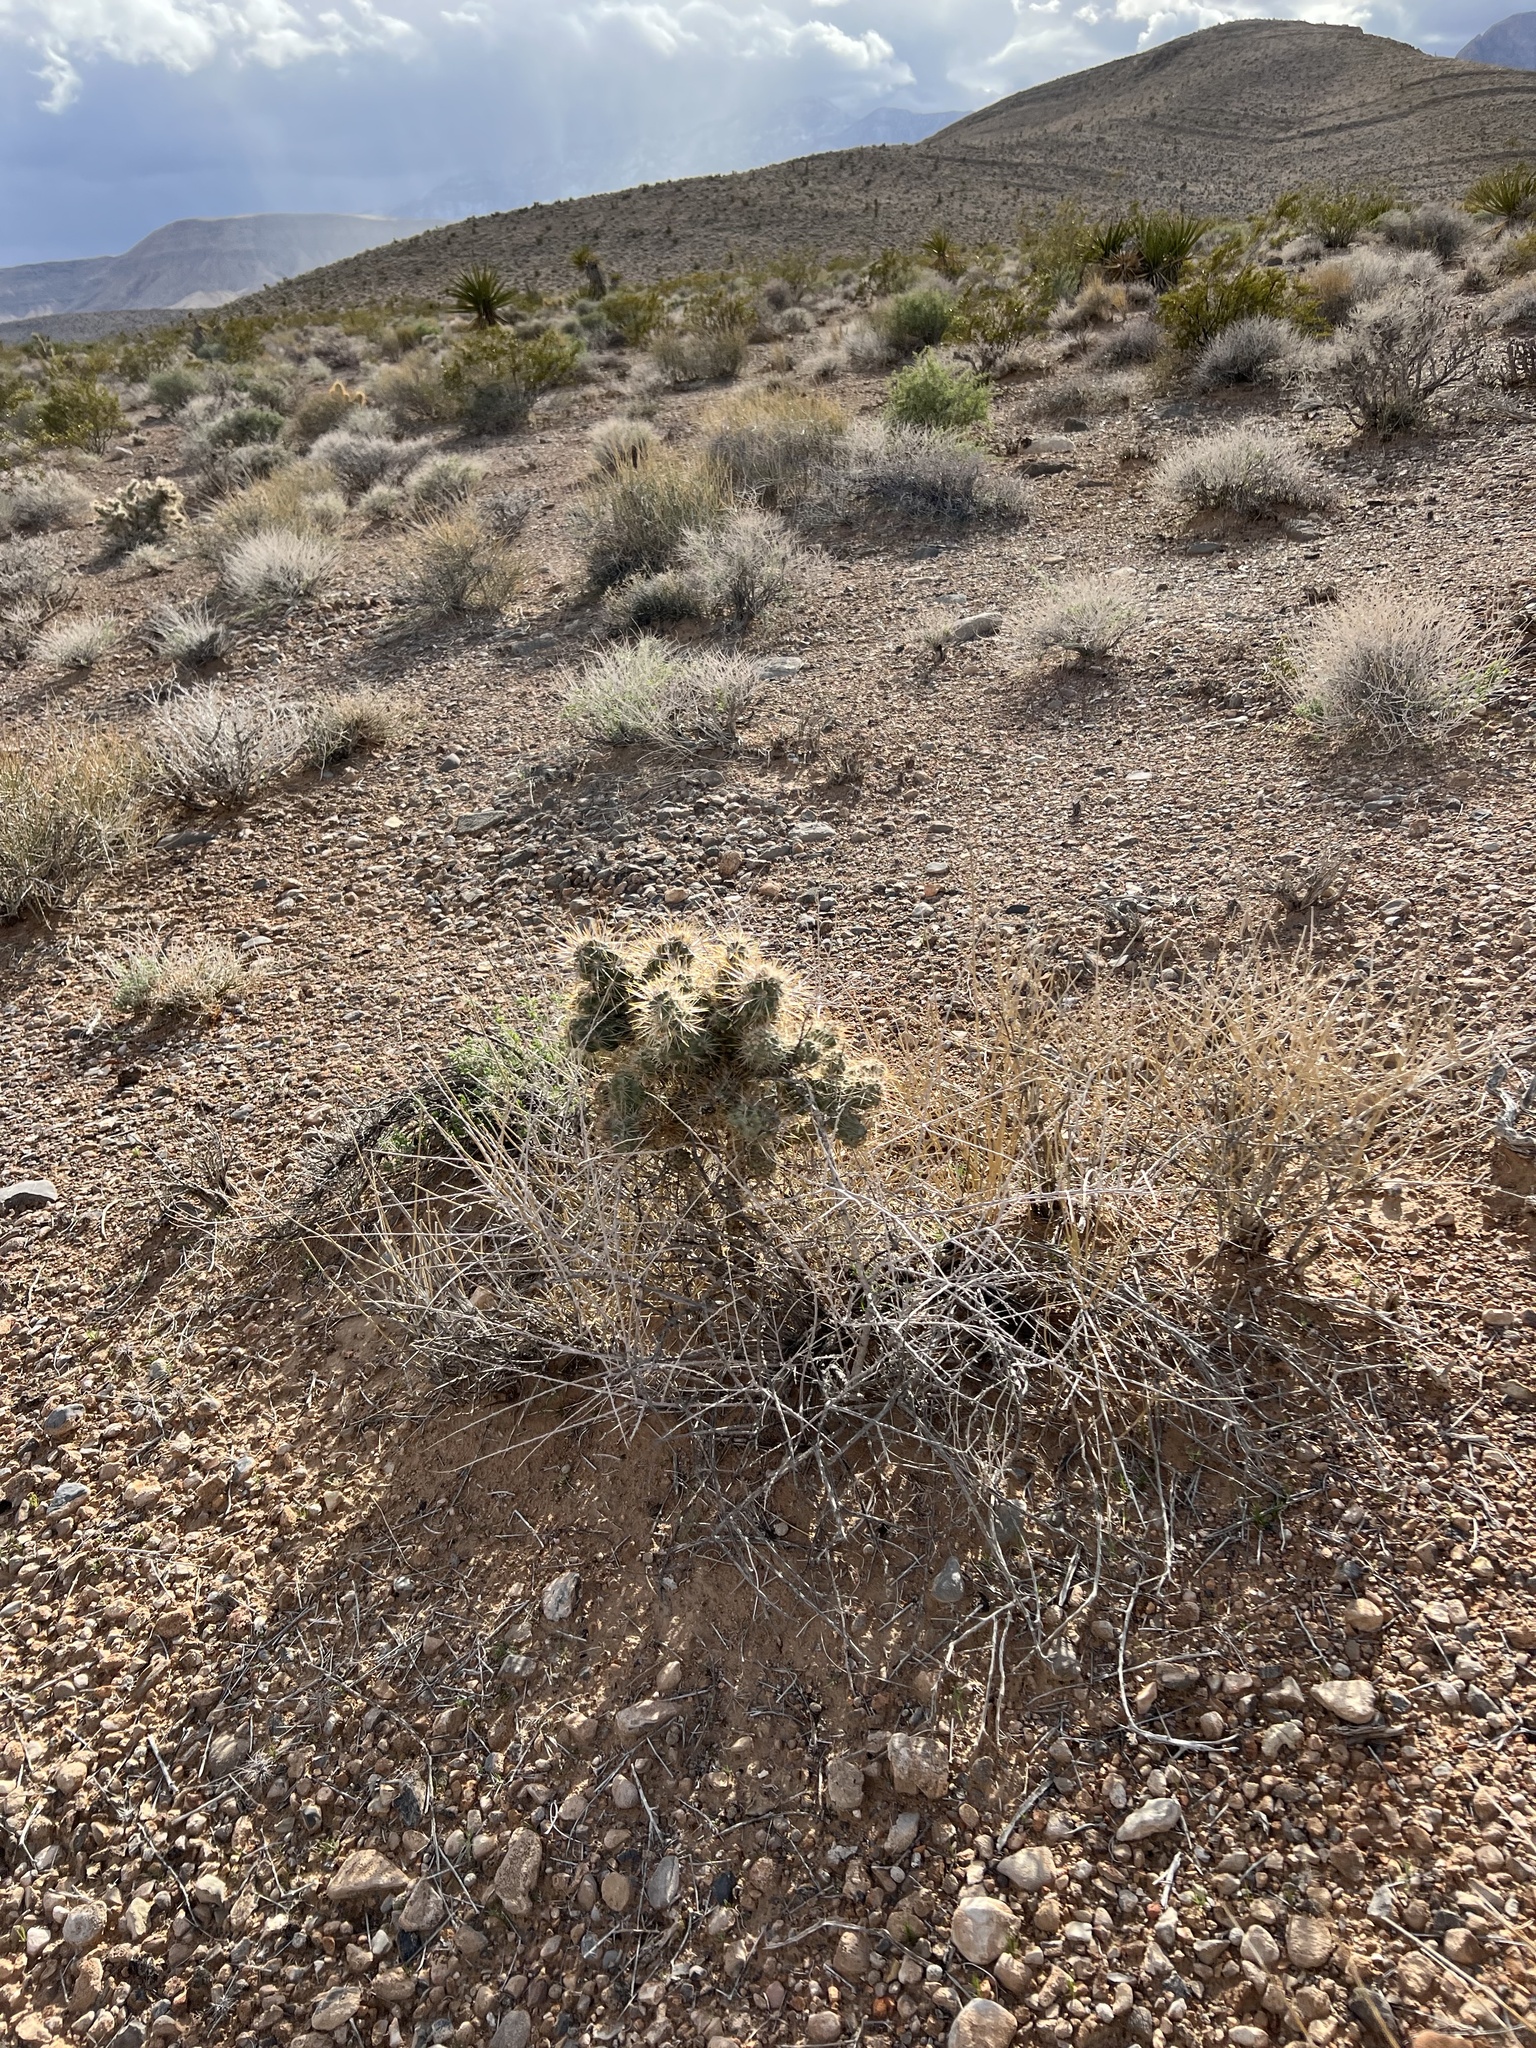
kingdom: Plantae
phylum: Tracheophyta
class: Magnoliopsida
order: Caryophyllales
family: Cactaceae
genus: Cylindropuntia
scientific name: Cylindropuntia echinocarpa
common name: Ground cholla
